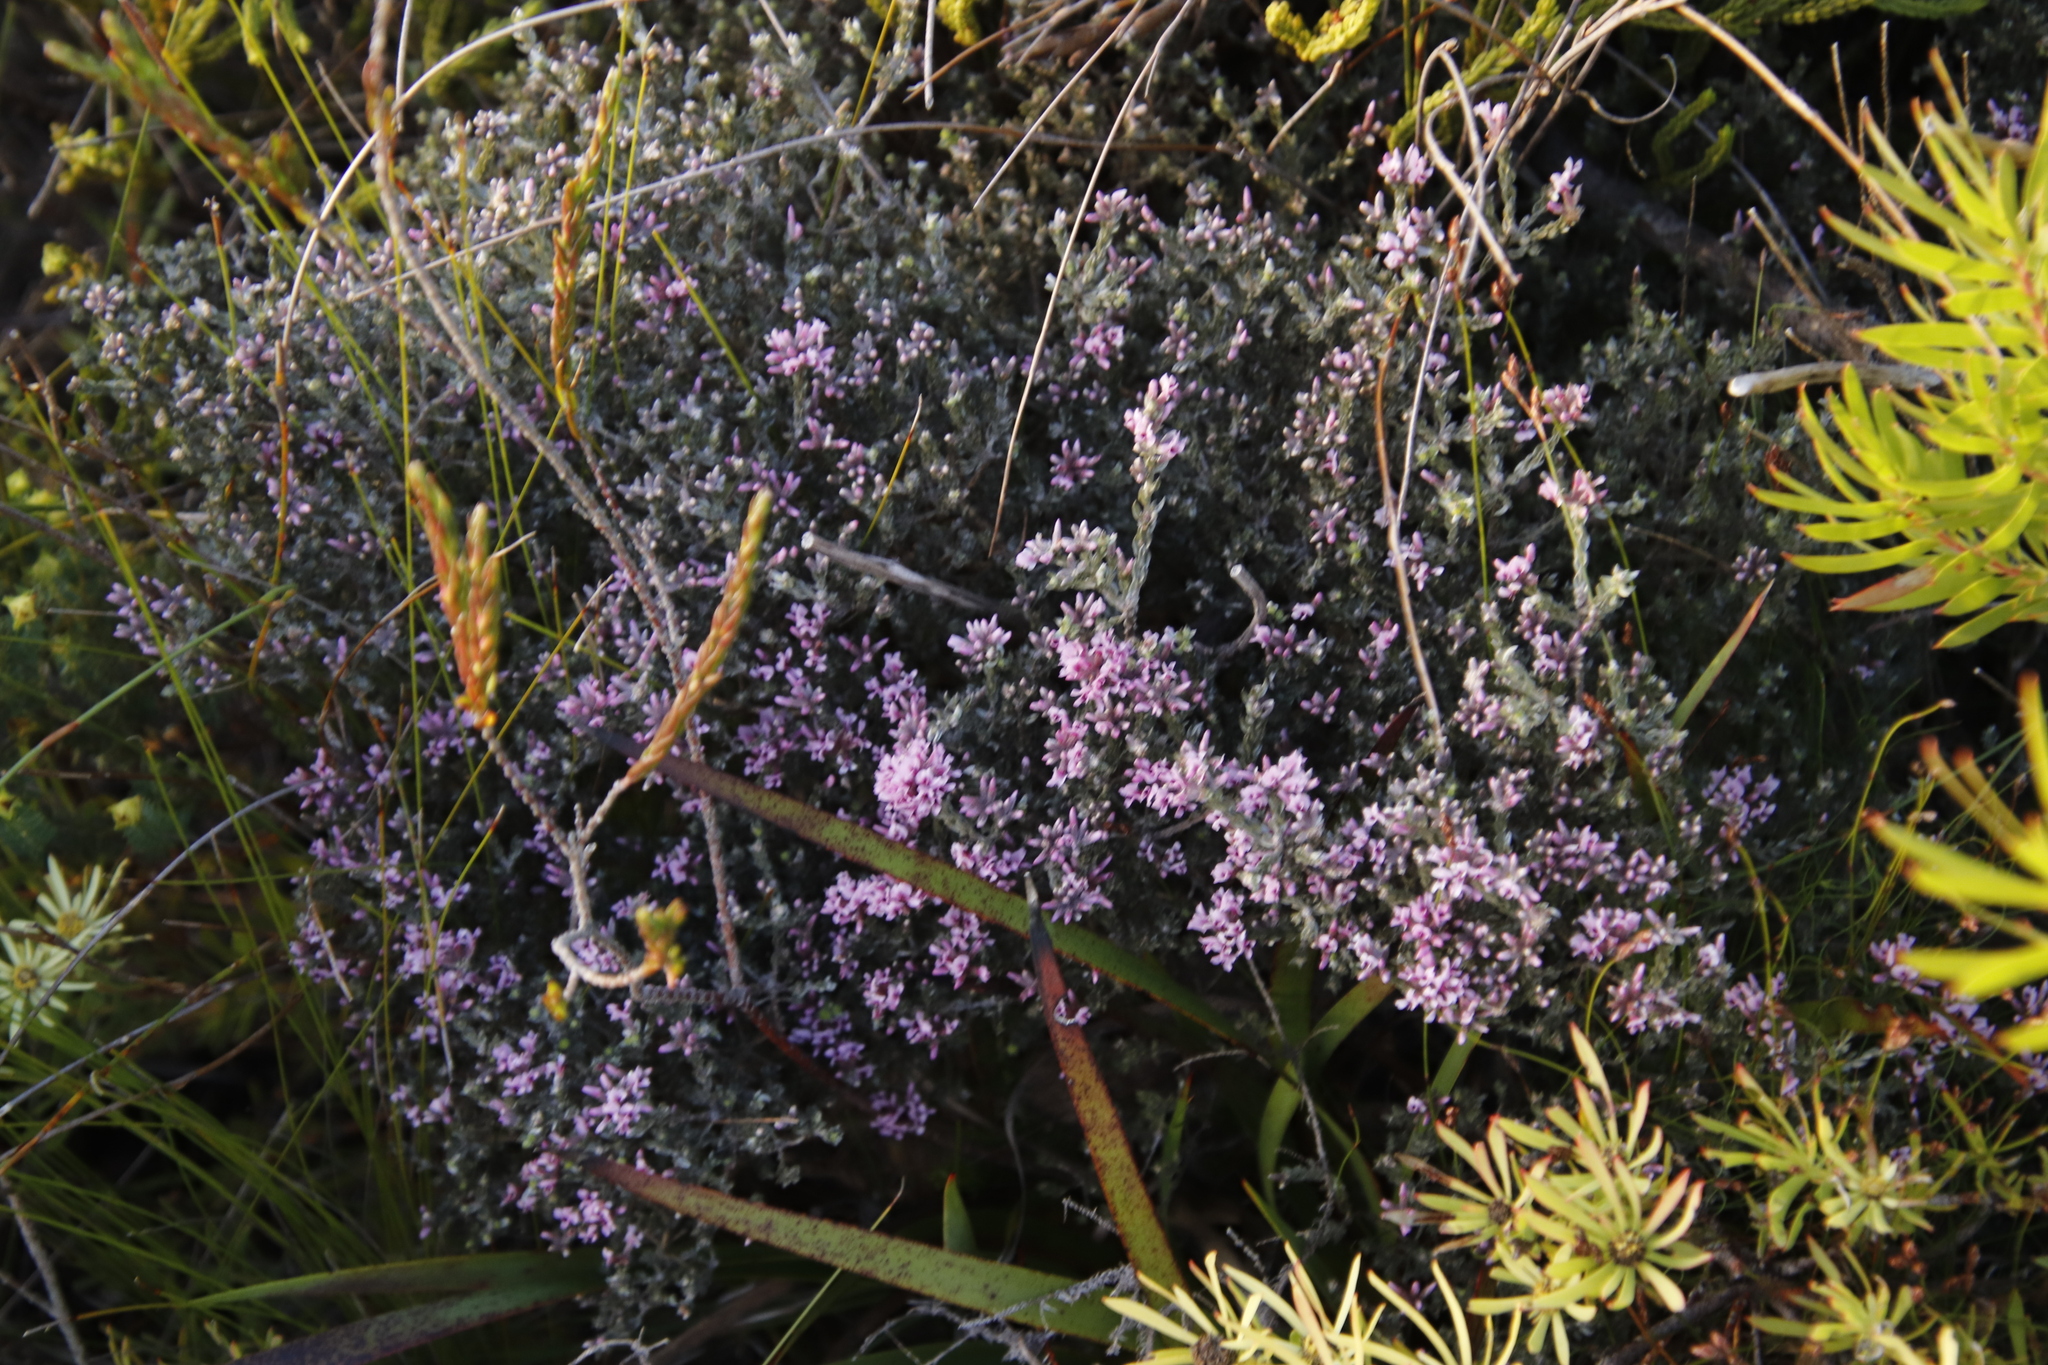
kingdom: Plantae
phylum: Tracheophyta
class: Magnoliopsida
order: Fabales
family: Fabaceae
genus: Amphithalea
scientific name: Amphithalea ericifolia
